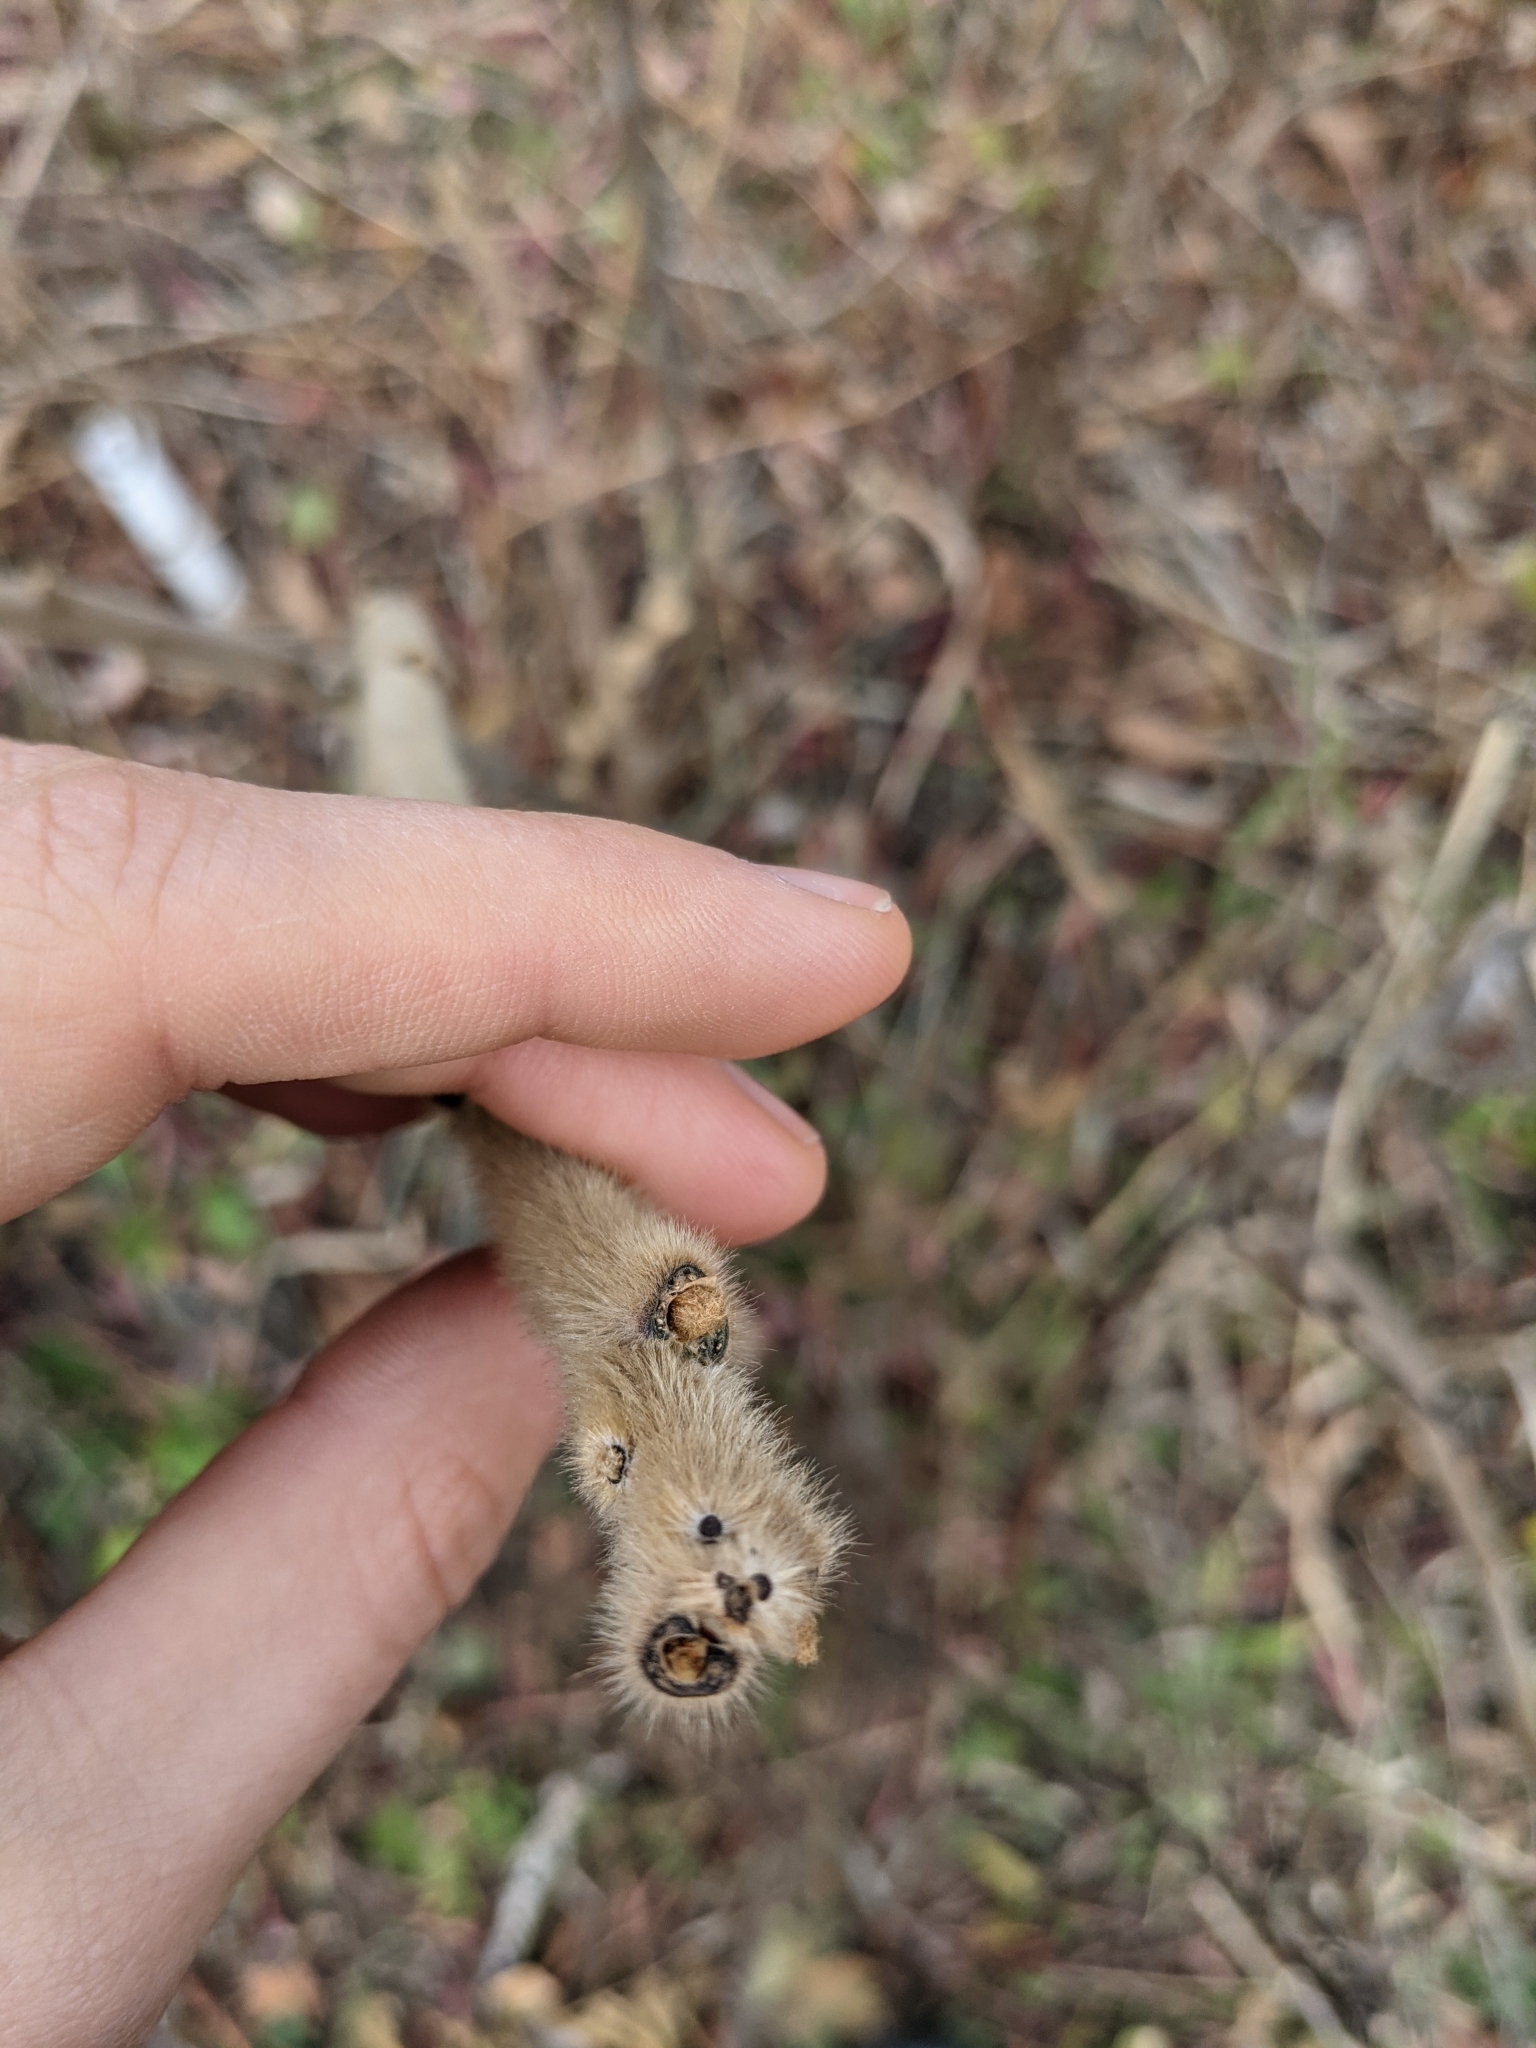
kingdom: Plantae
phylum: Tracheophyta
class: Magnoliopsida
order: Sapindales
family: Anacardiaceae
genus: Rhus
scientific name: Rhus typhina
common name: Staghorn sumac
